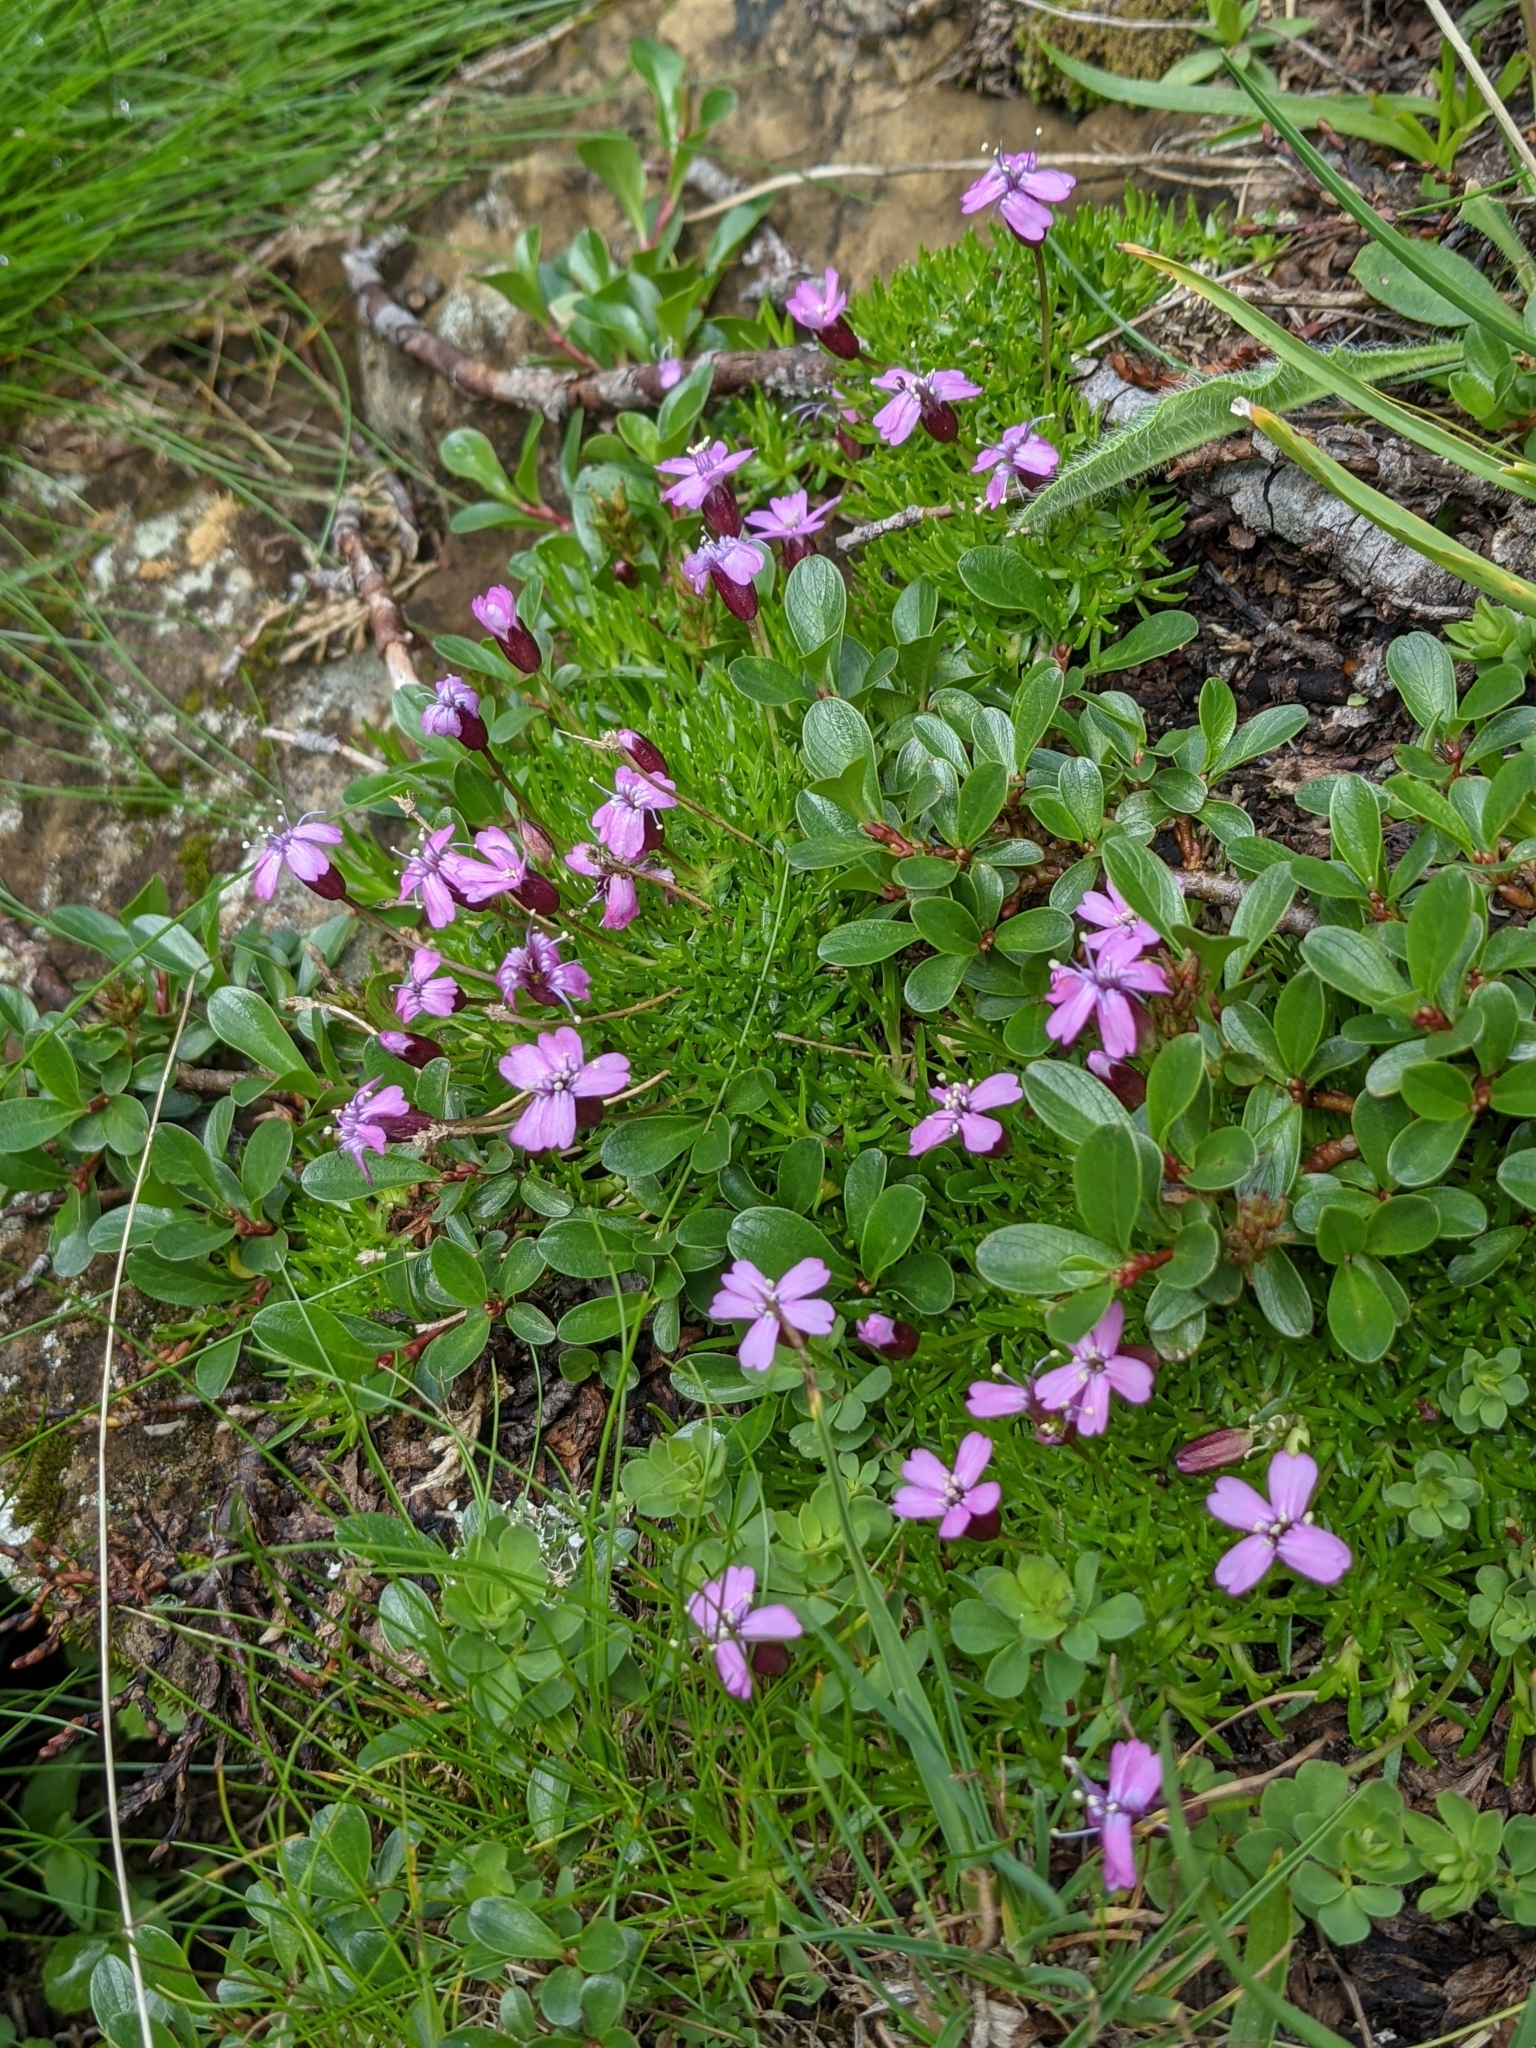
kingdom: Plantae
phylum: Tracheophyta
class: Magnoliopsida
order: Caryophyllales
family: Caryophyllaceae
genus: Silene
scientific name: Silene acaulis
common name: Moss campion
